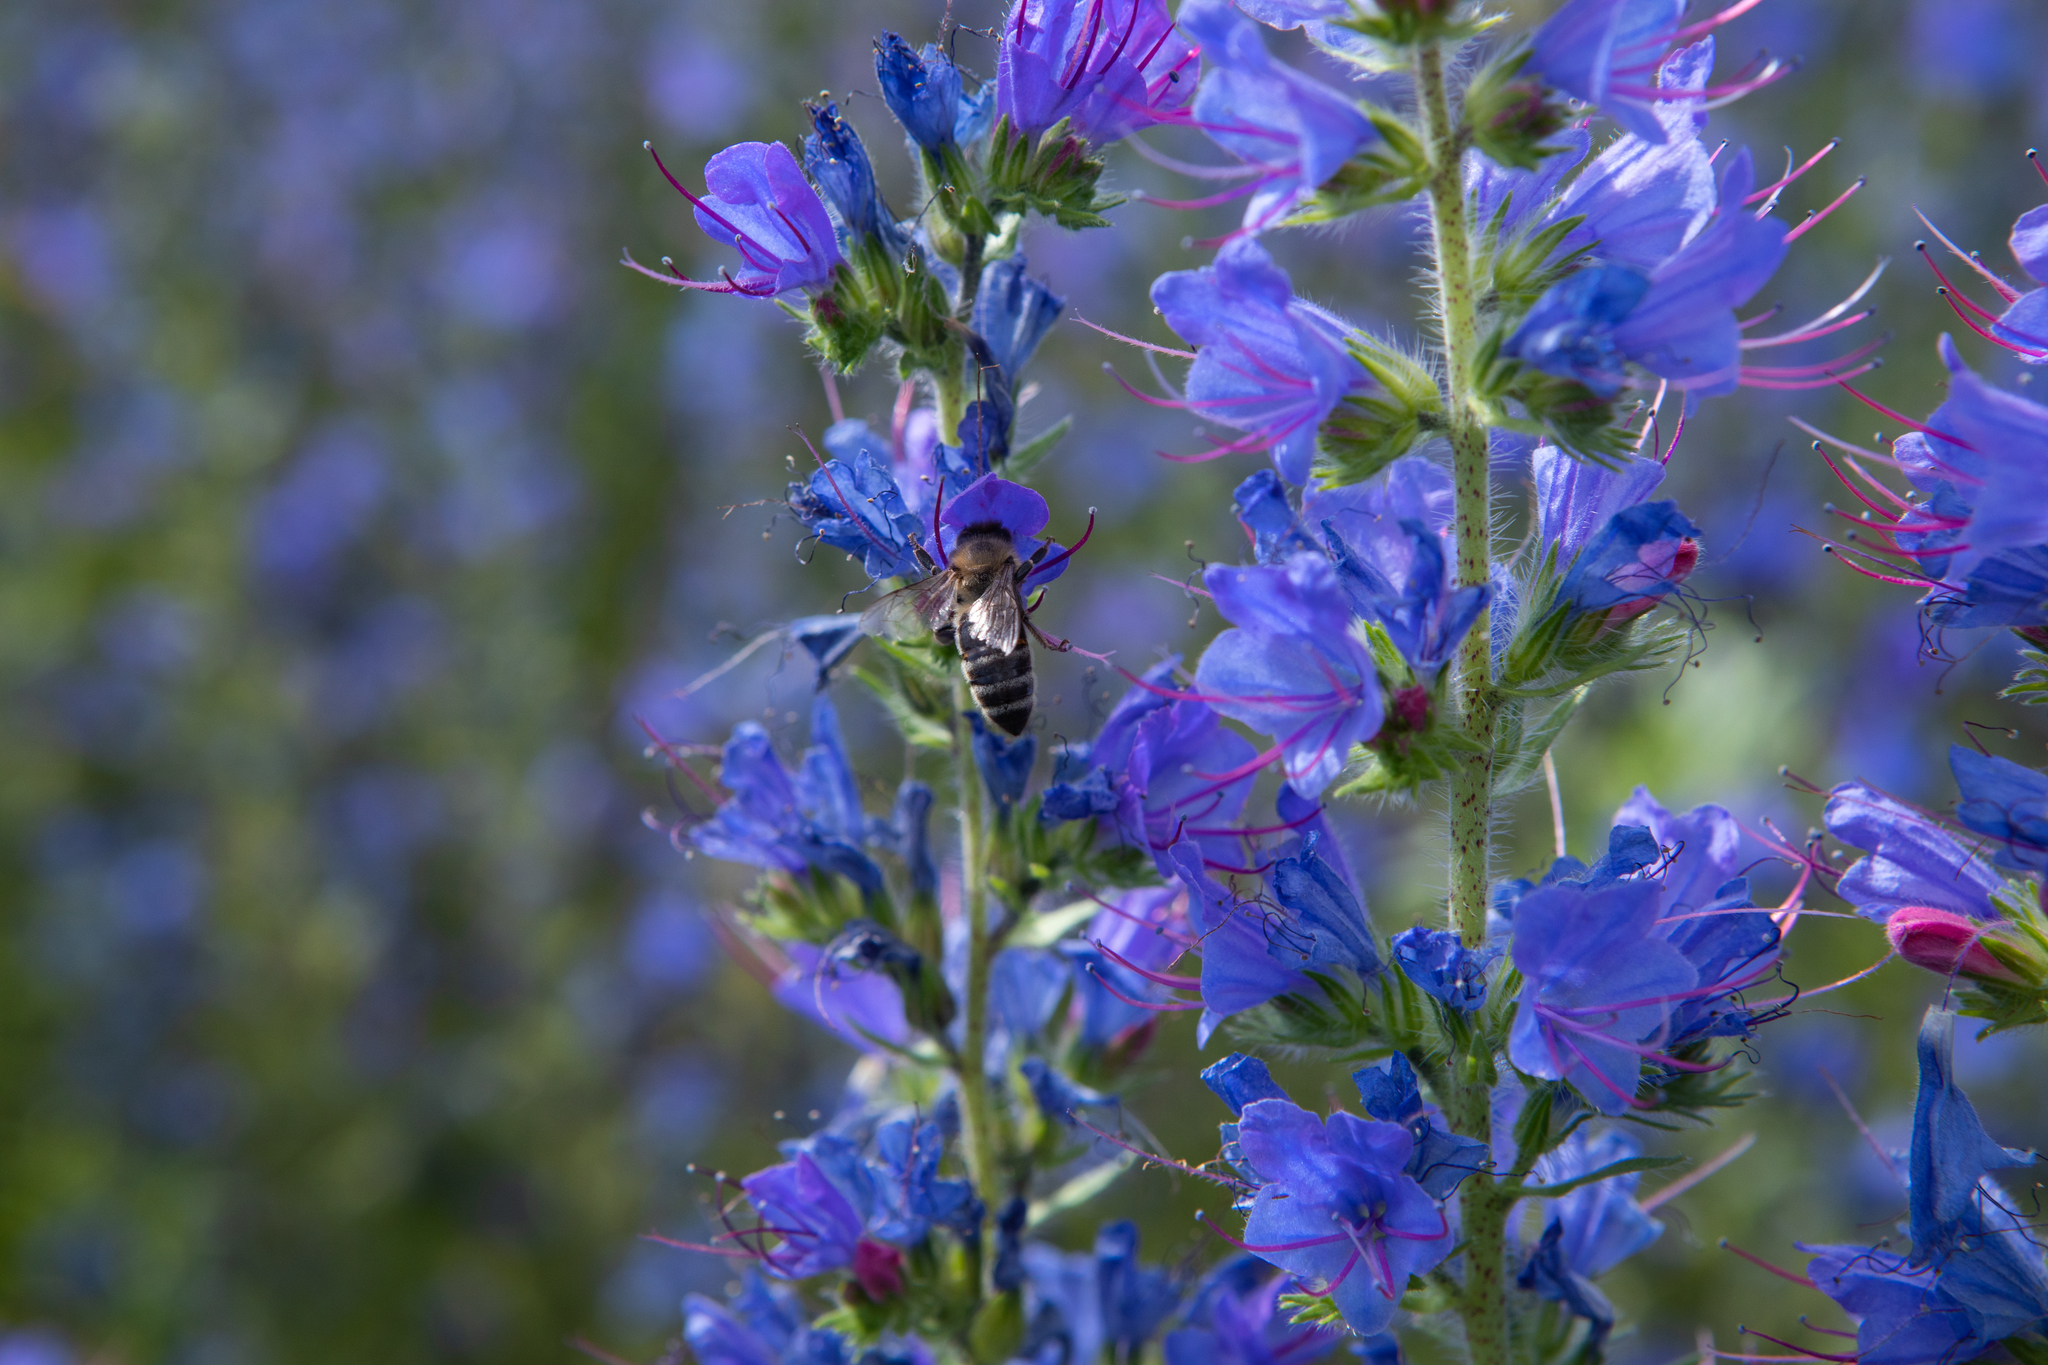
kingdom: Plantae
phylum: Tracheophyta
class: Magnoliopsida
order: Boraginales
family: Boraginaceae
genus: Echium
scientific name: Echium vulgare
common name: Common viper's bugloss
